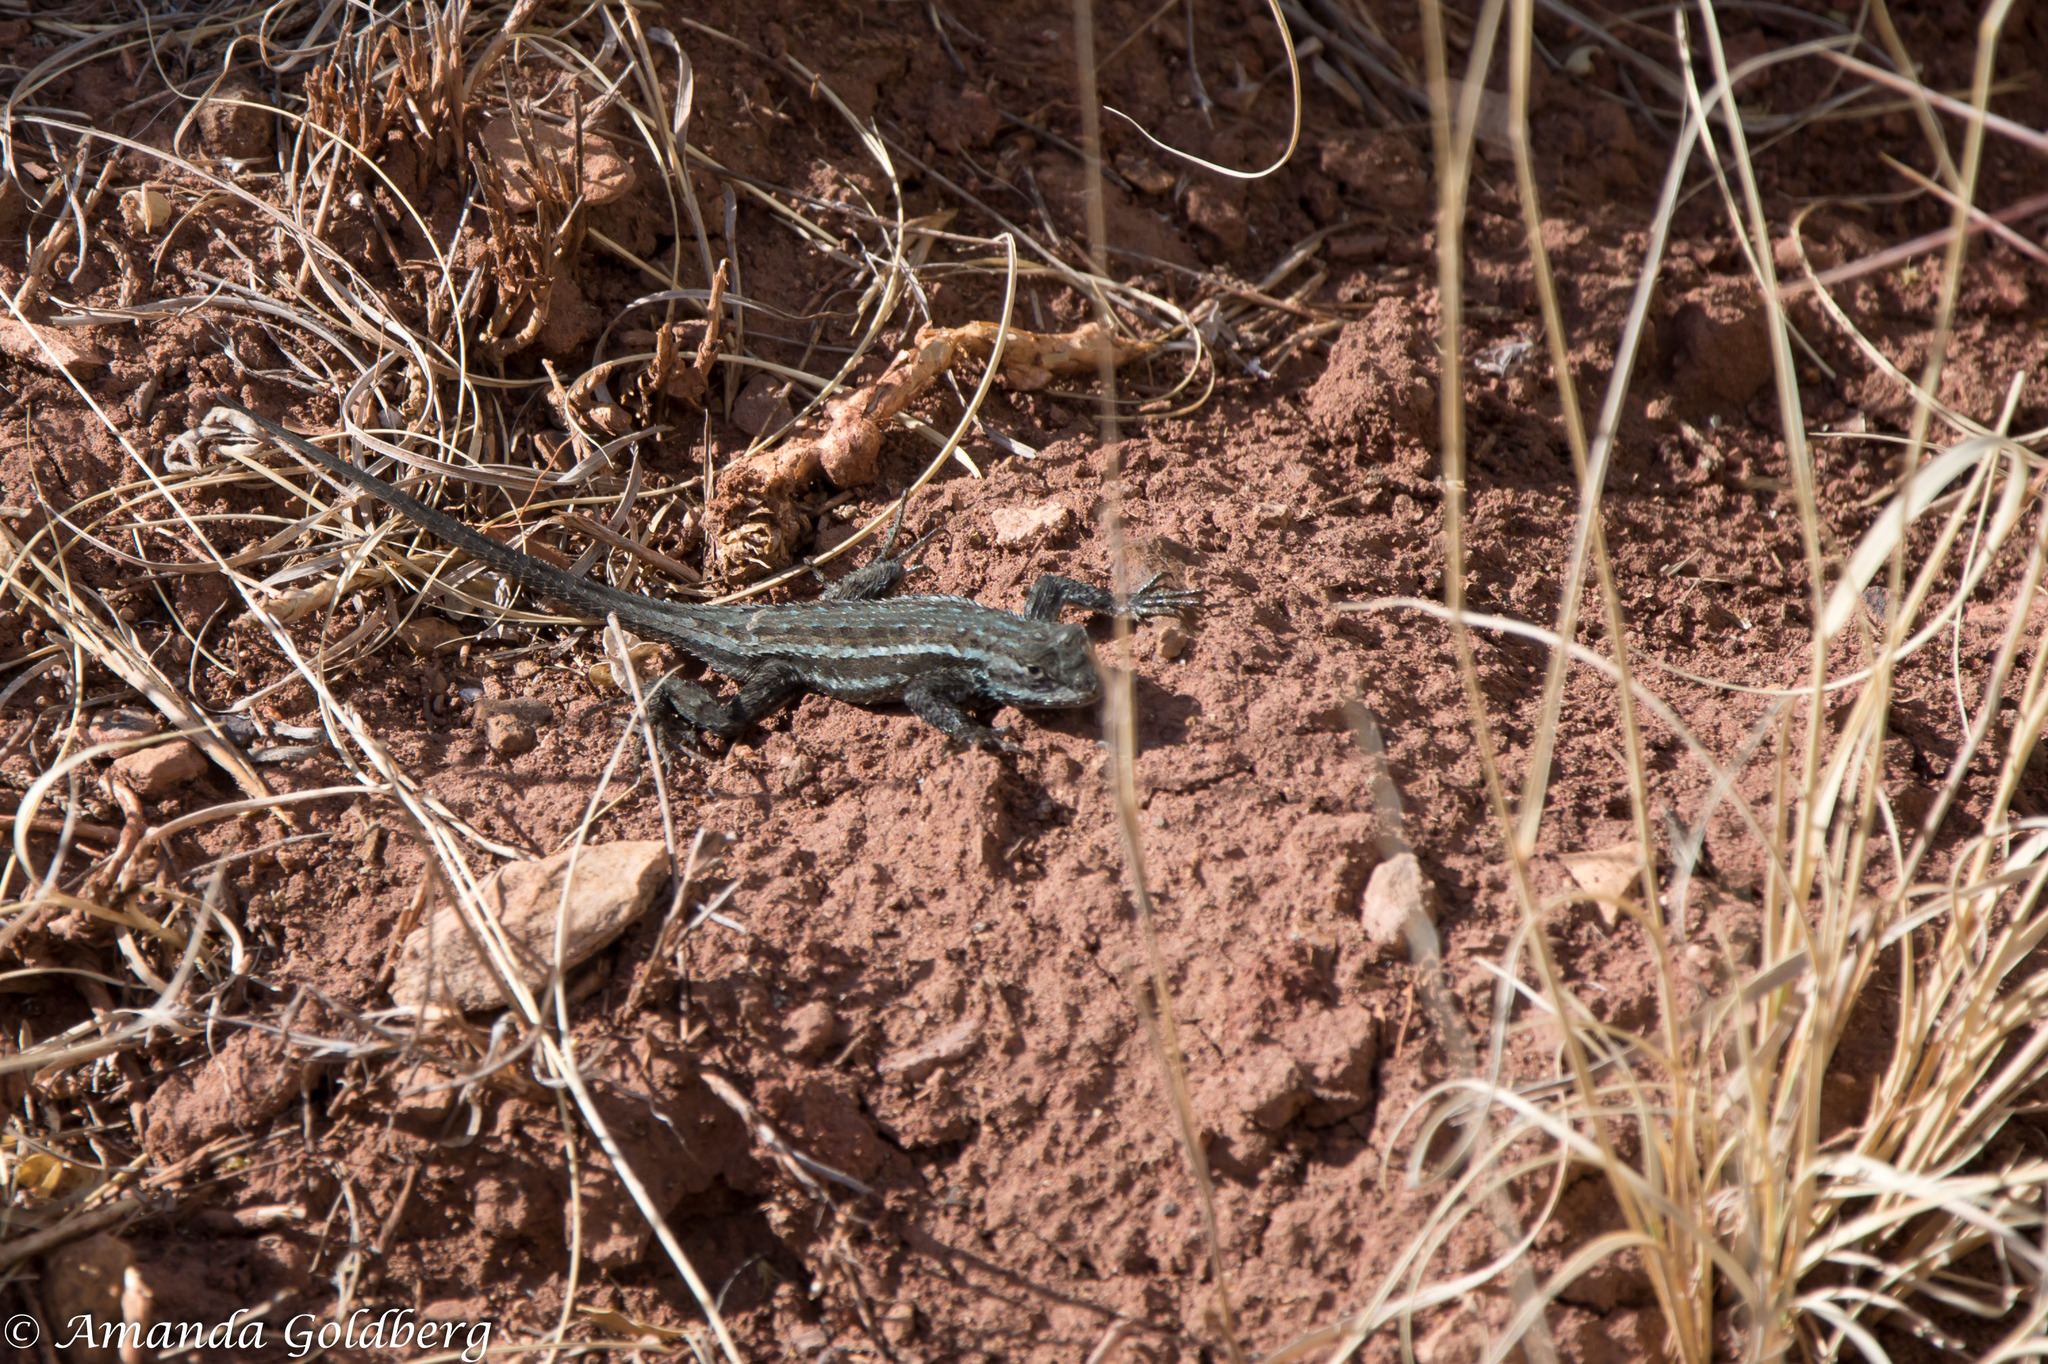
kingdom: Animalia
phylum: Chordata
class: Squamata
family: Phrynosomatidae
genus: Sceloporus
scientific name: Sceloporus cowlesi
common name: White sands prairie lizard
